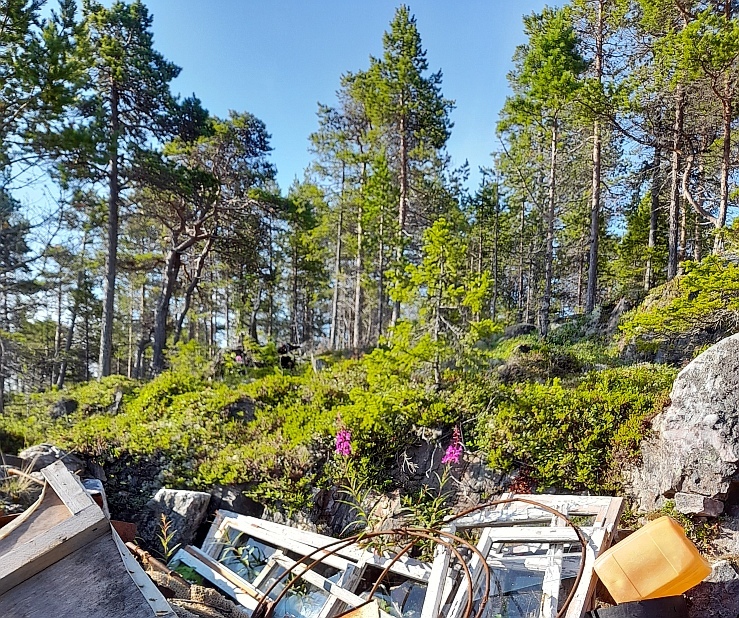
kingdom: Plantae
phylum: Tracheophyta
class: Pinopsida
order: Pinales
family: Pinaceae
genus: Pinus
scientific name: Pinus sylvestris
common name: Scots pine
